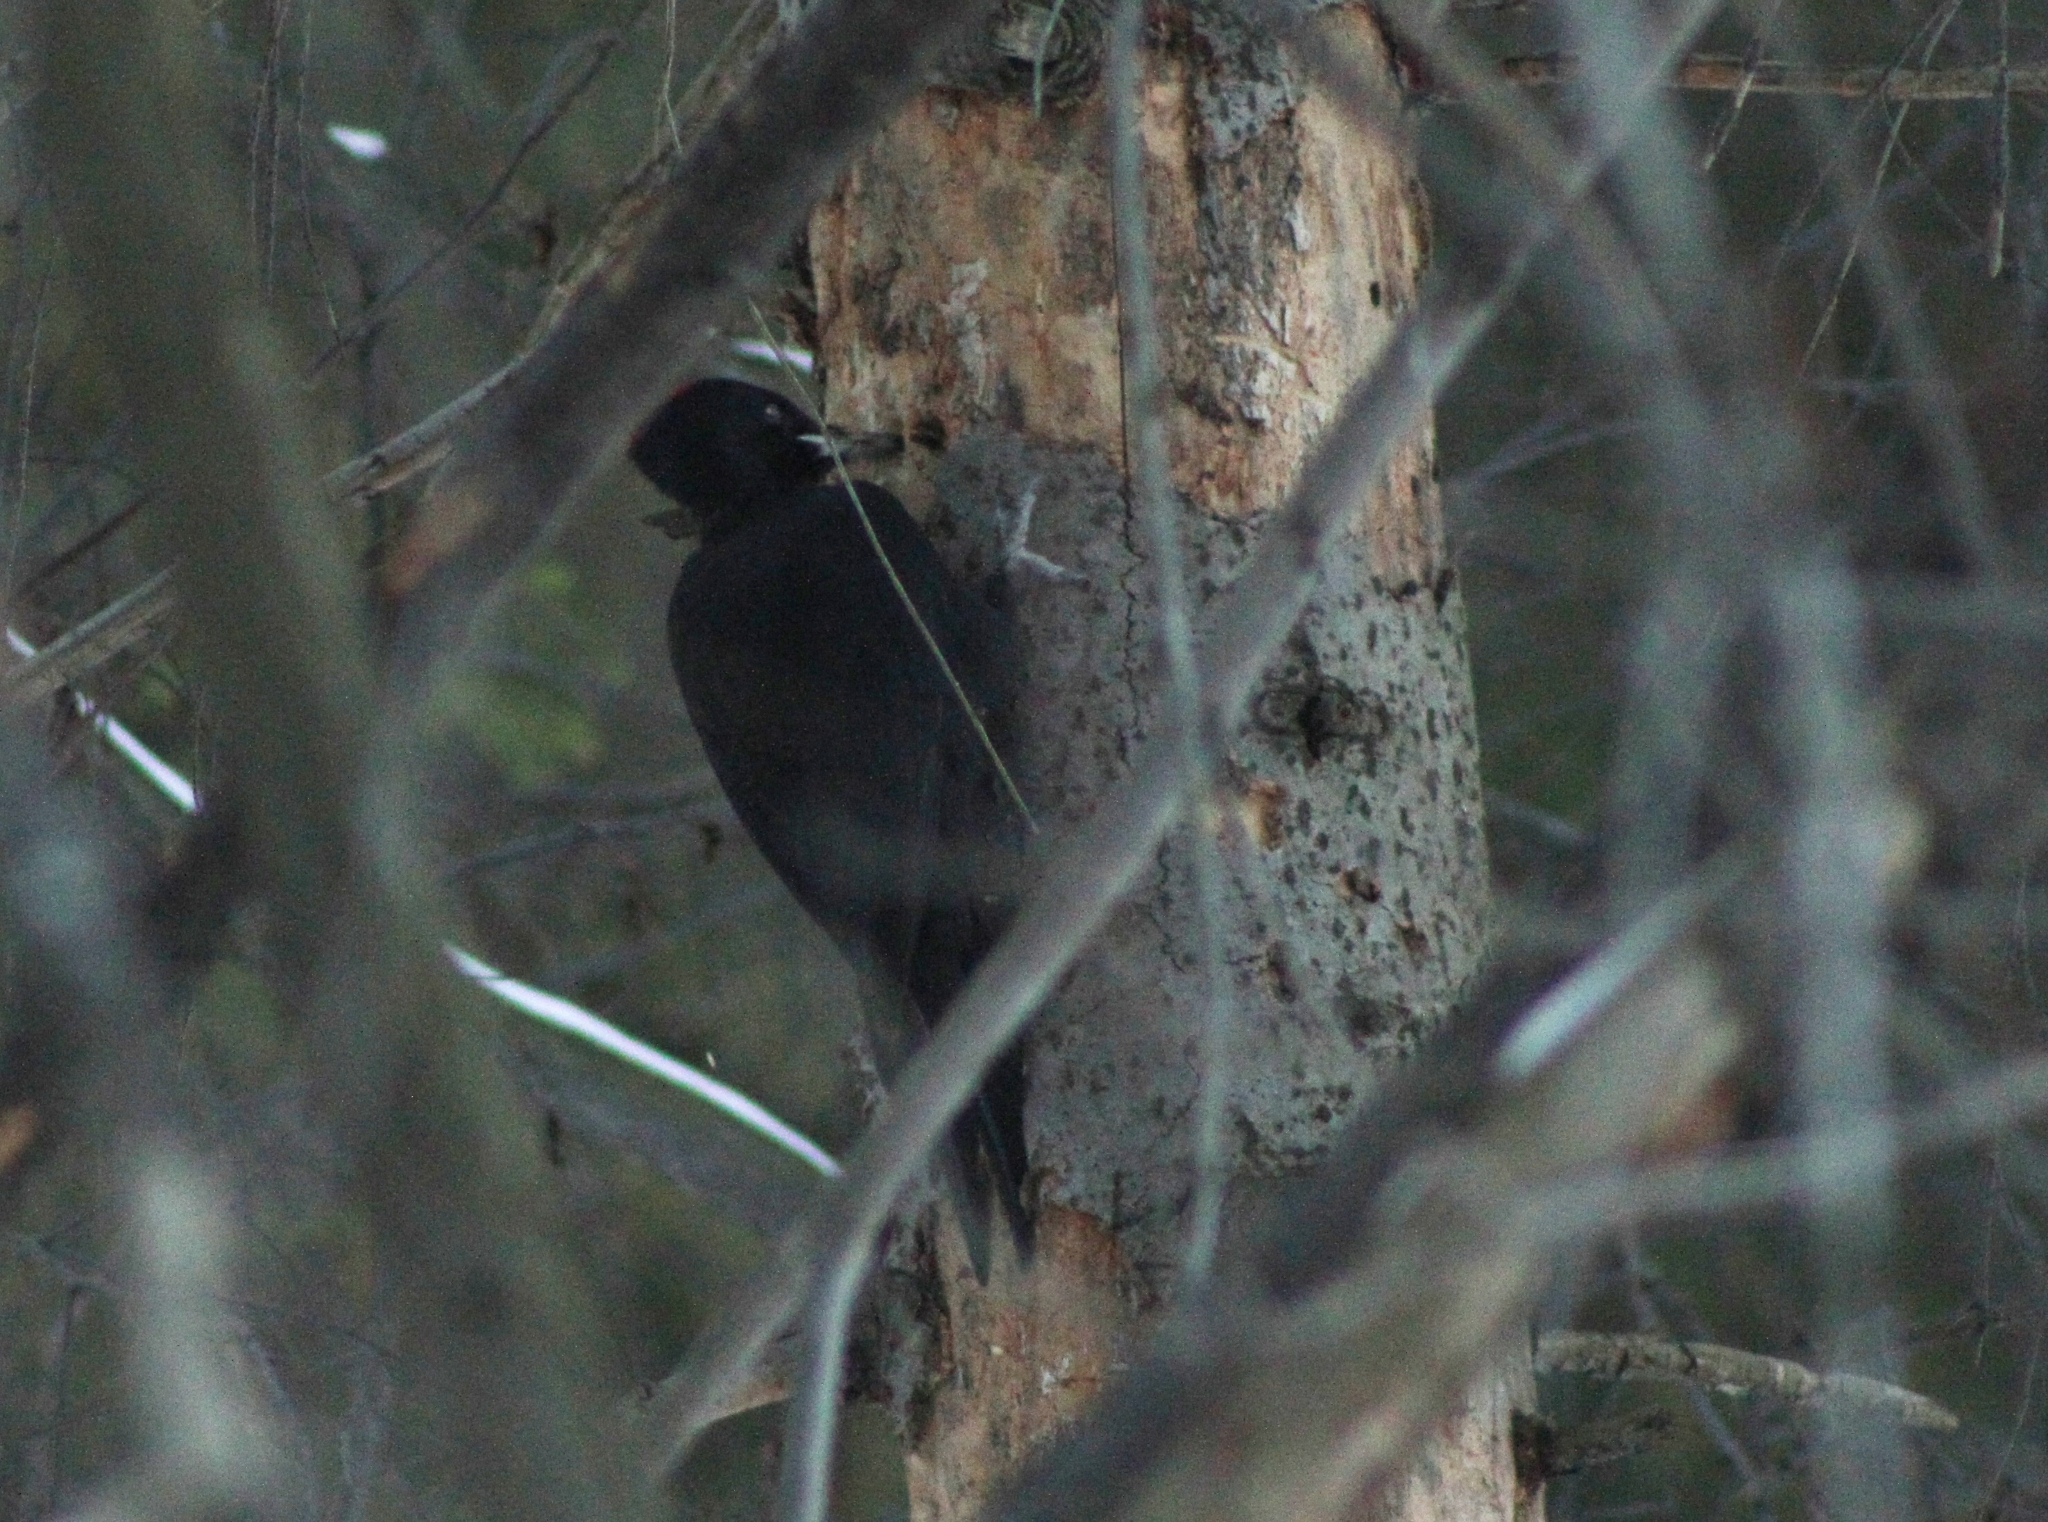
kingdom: Animalia
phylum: Chordata
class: Aves
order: Piciformes
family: Picidae
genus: Dryocopus
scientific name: Dryocopus martius
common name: Black woodpecker
